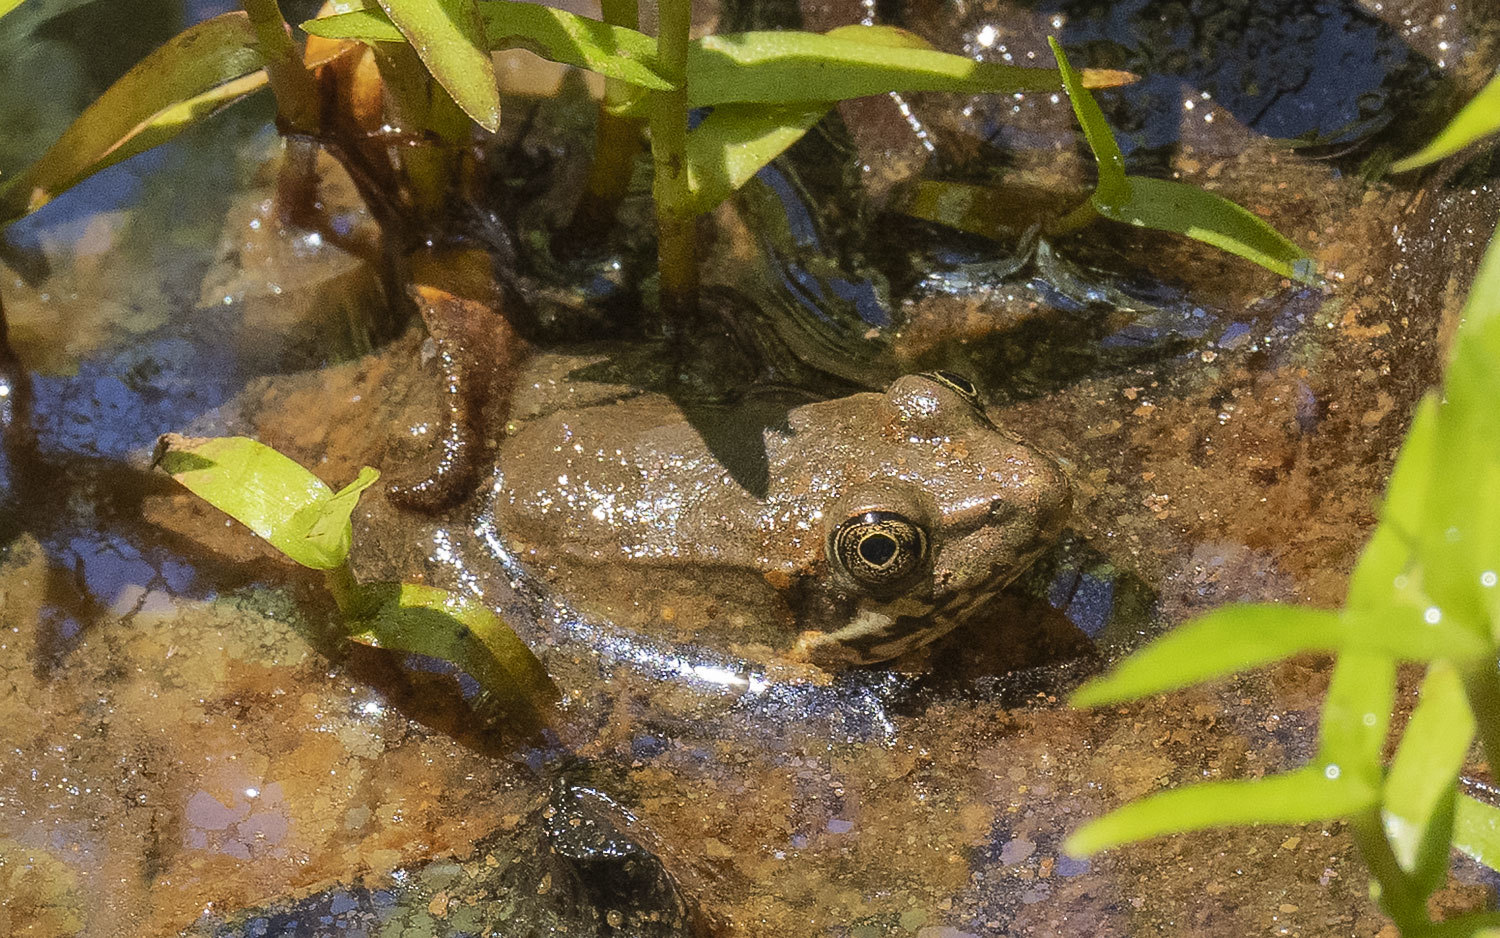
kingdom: Animalia
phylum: Chordata
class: Amphibia
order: Anura
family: Ranidae
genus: Lithobates
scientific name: Lithobates clamitans
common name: Green frog
